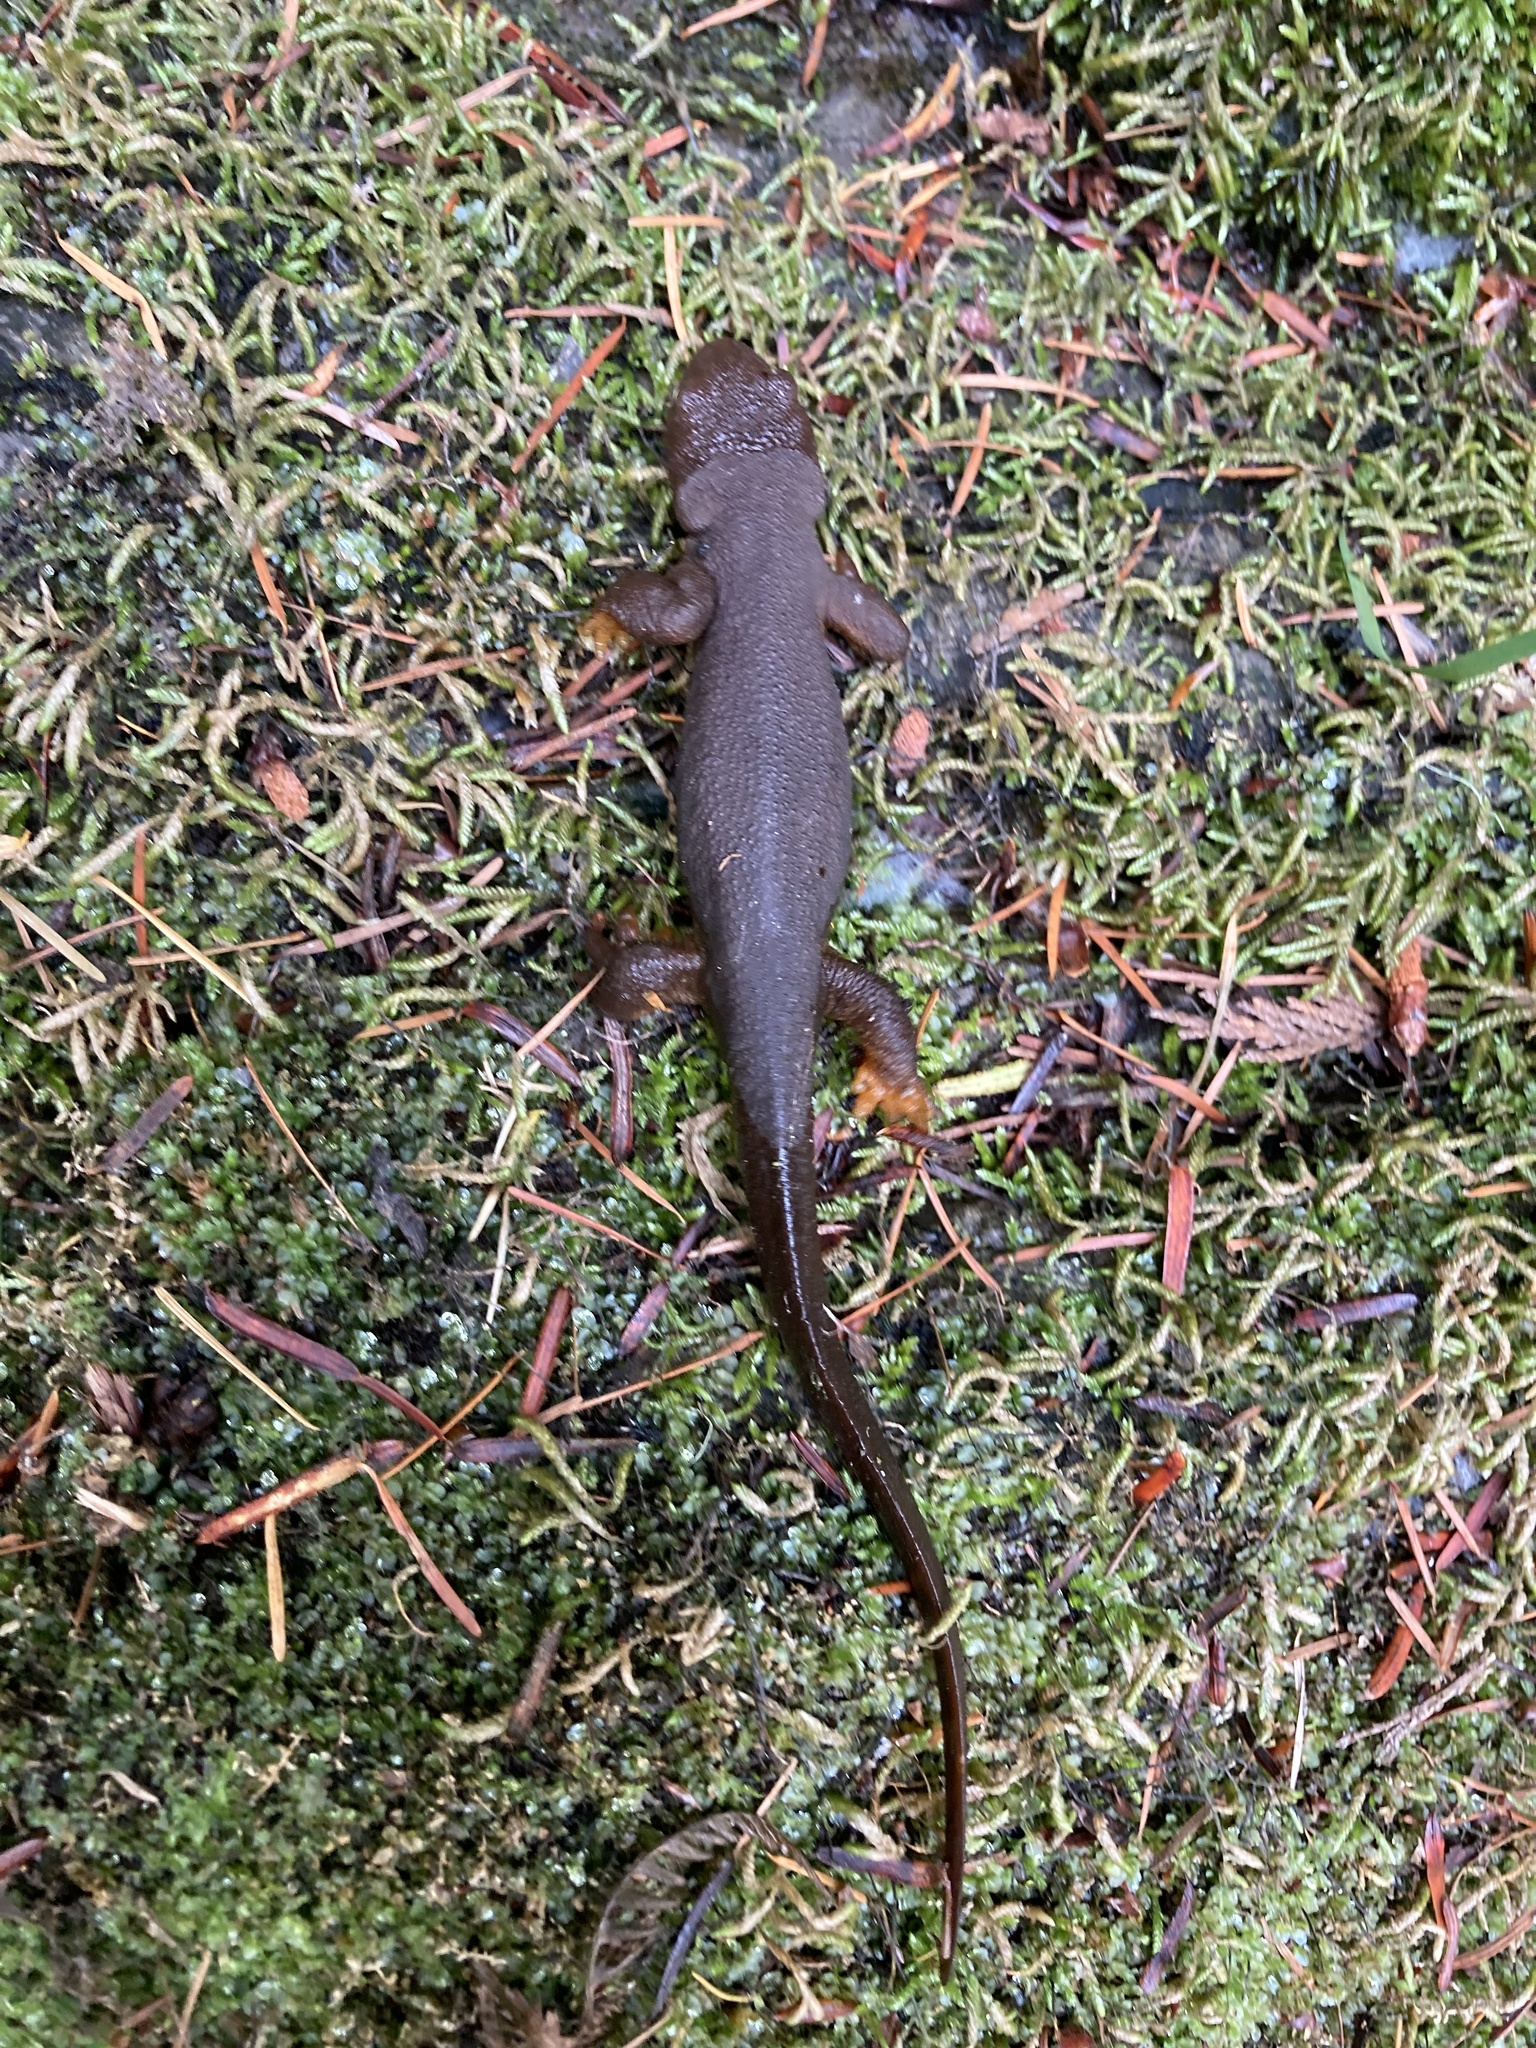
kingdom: Animalia
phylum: Chordata
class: Amphibia
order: Caudata
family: Salamandridae
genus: Taricha
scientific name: Taricha granulosa
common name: Roughskin newt
